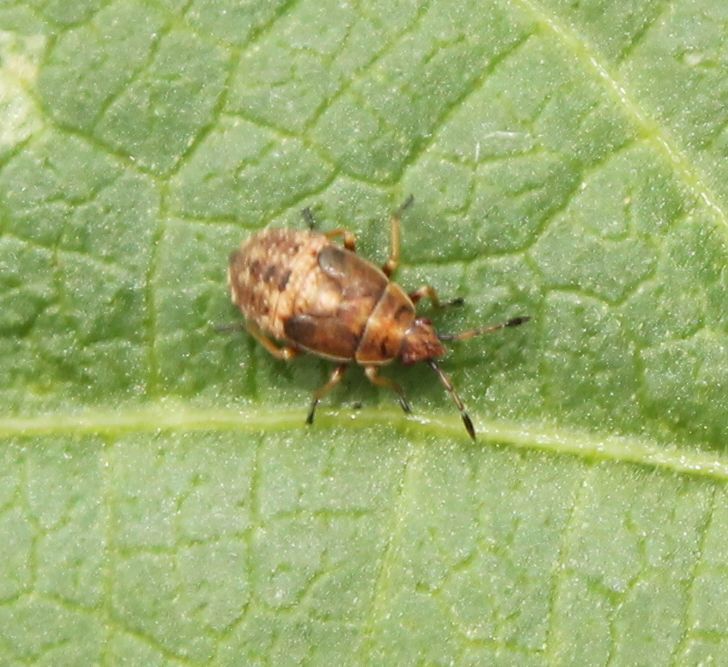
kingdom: Animalia
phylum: Arthropoda
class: Insecta
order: Hemiptera
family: Lygaeidae
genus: Kleidocerys
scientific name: Kleidocerys resedae
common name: Birch catkin bug
